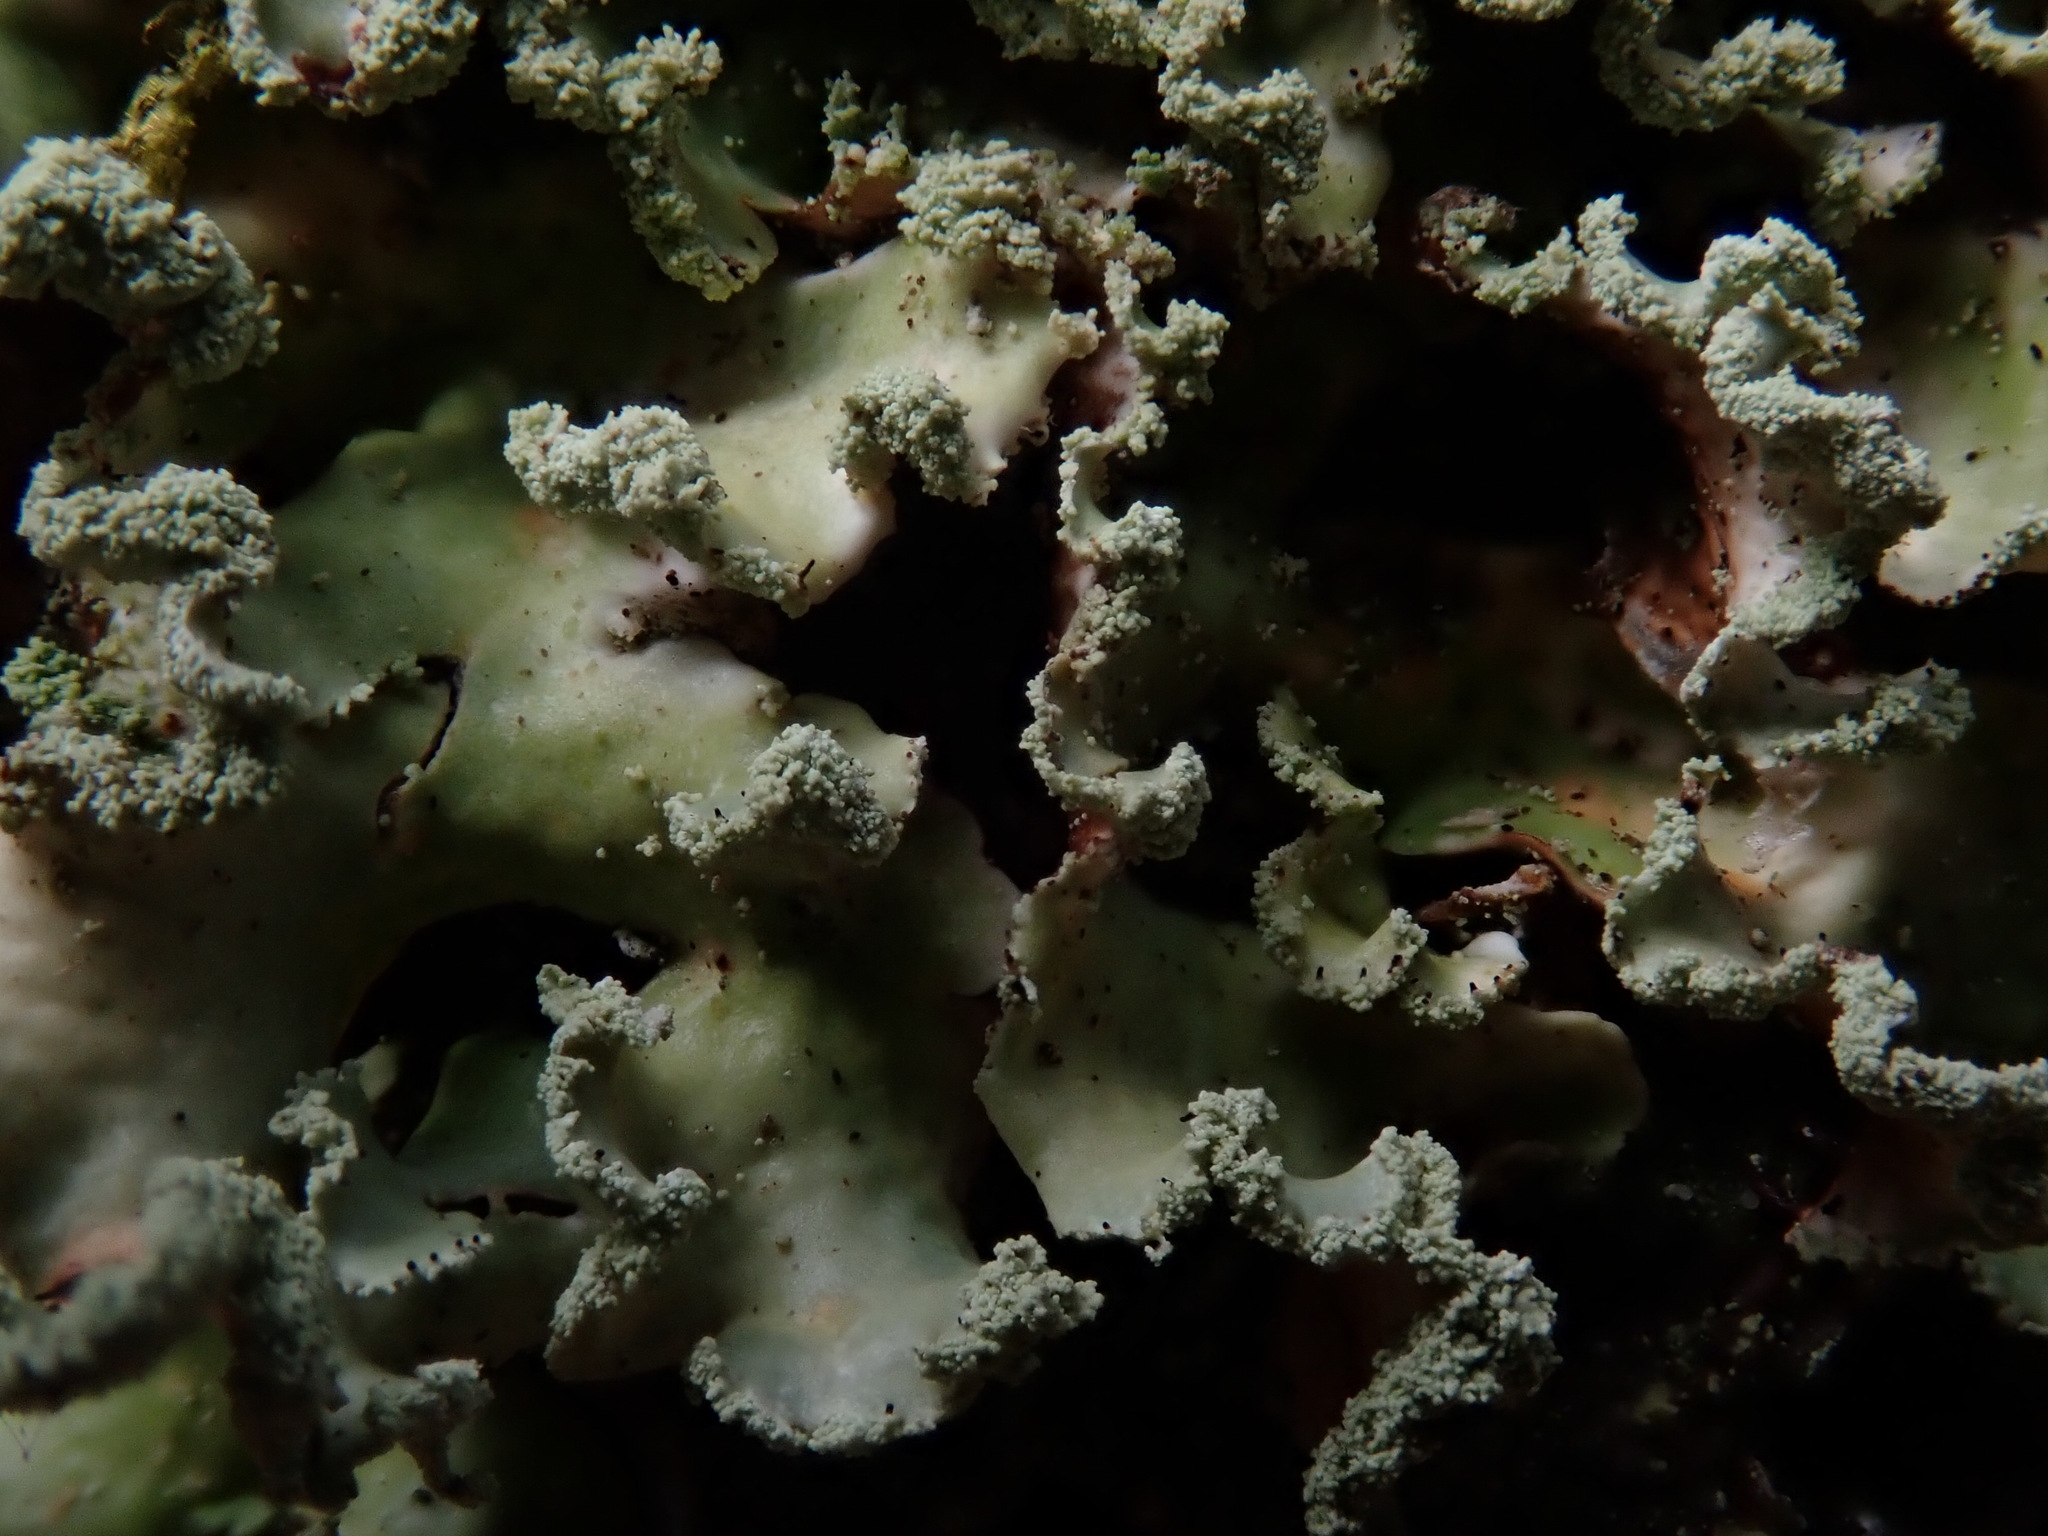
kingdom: Fungi
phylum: Ascomycota
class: Lecanoromycetes
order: Lecanorales
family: Parmeliaceae
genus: Usnocetraria
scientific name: Usnocetraria oakesiana
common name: Yellow ribbon lichen
